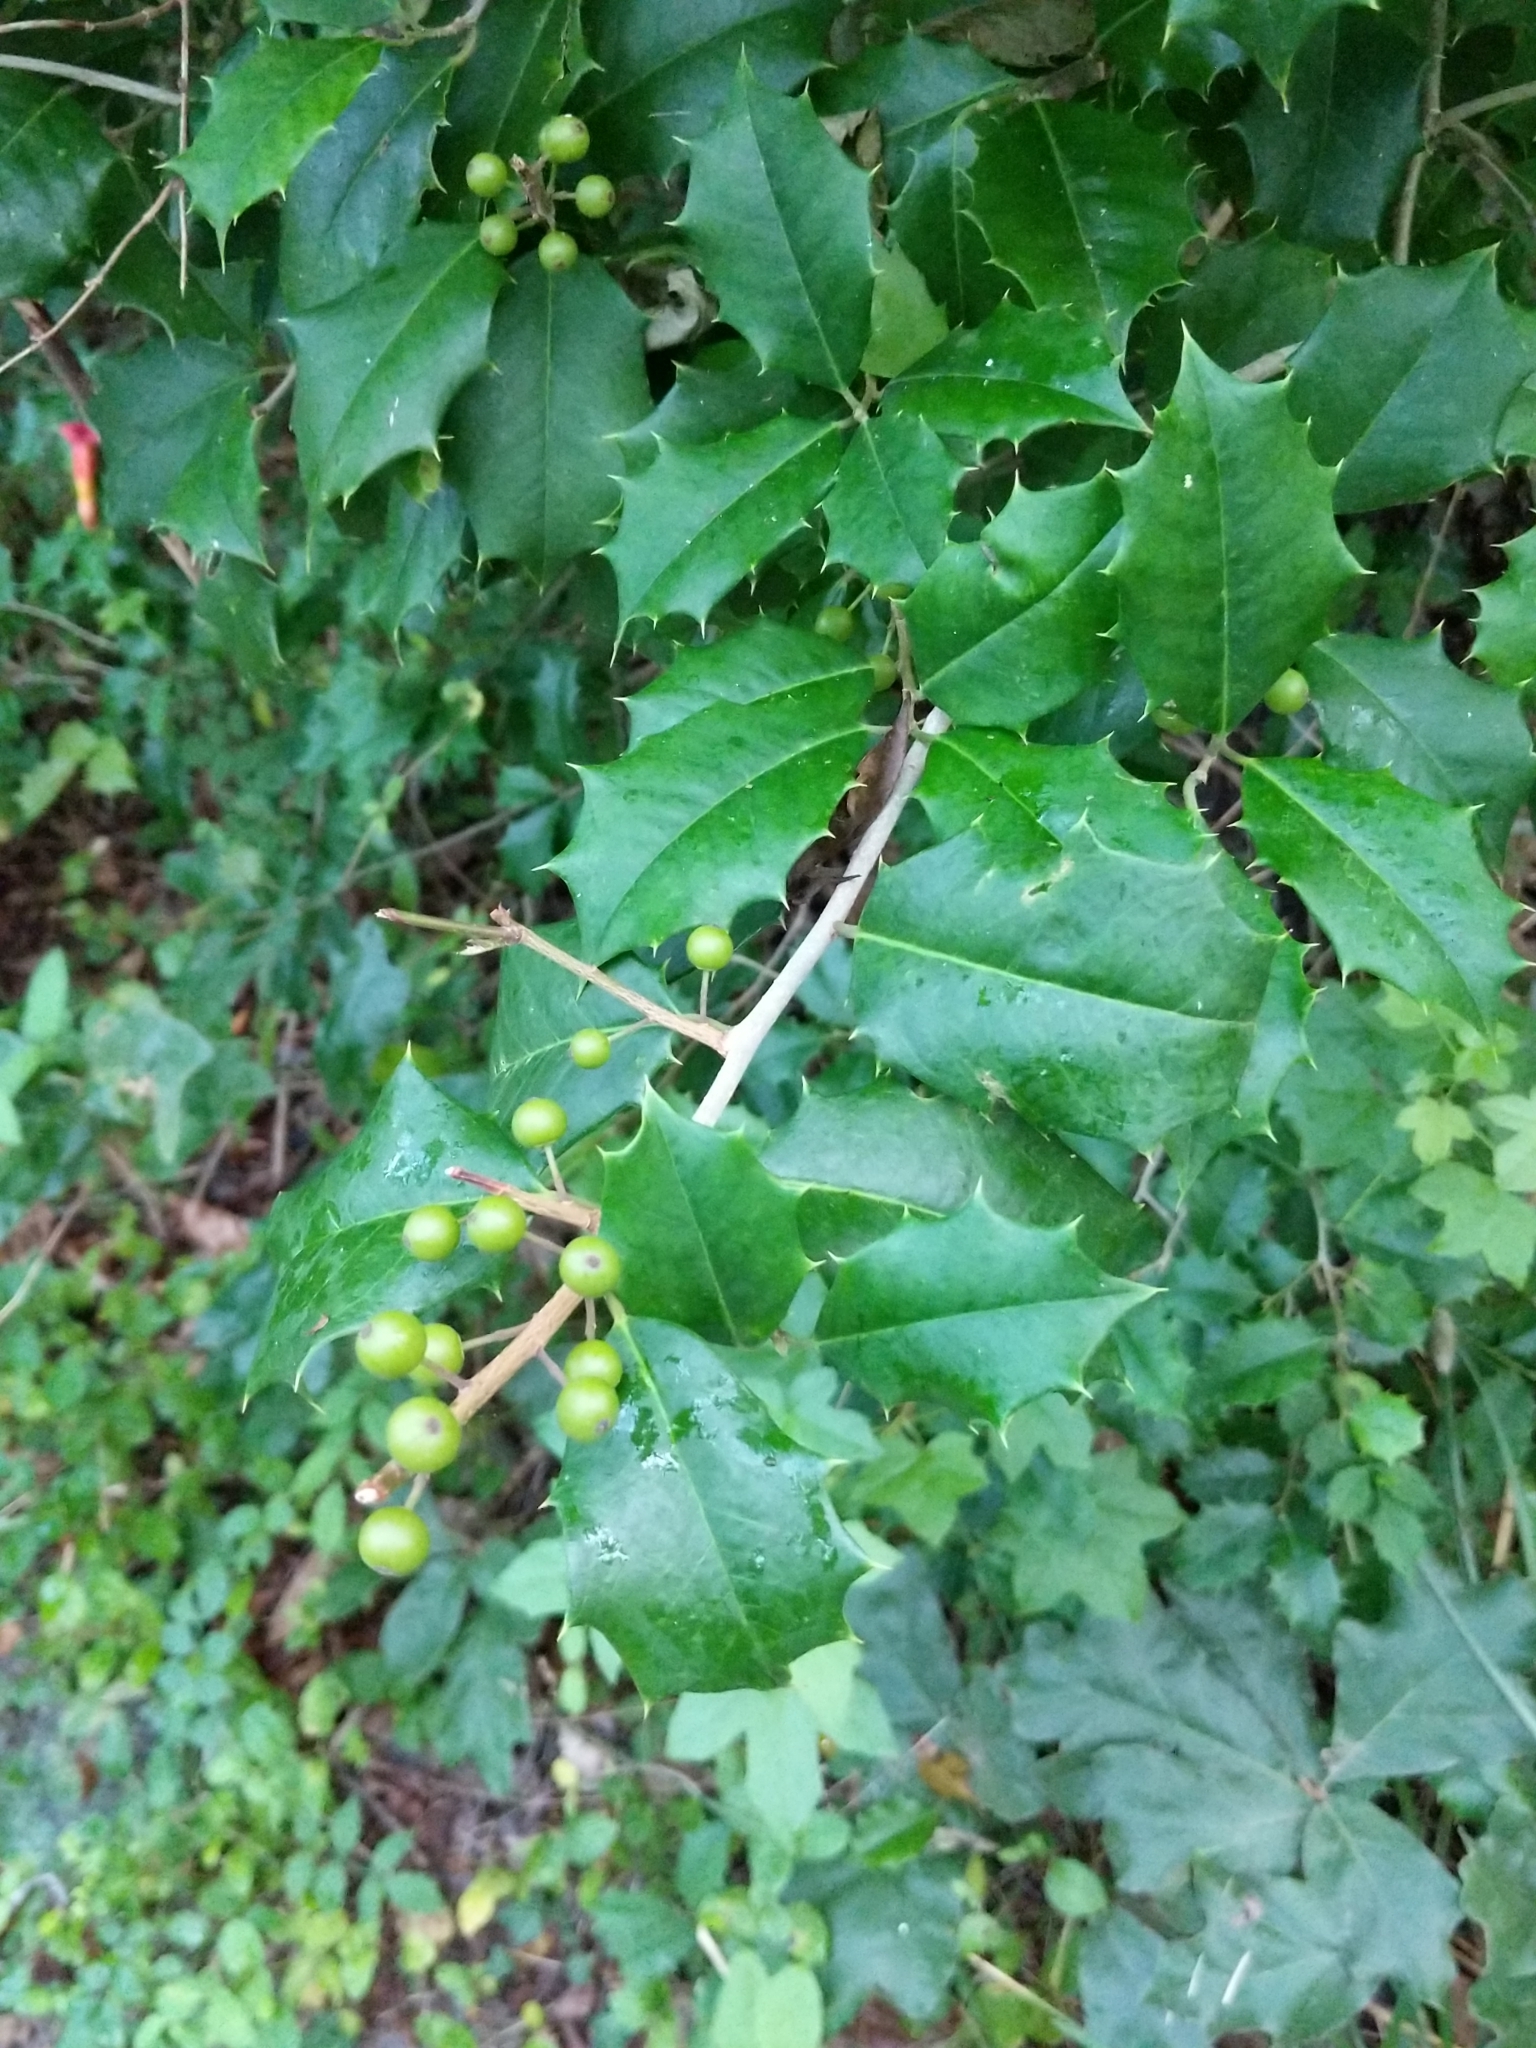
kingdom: Plantae
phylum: Tracheophyta
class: Magnoliopsida
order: Aquifoliales
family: Aquifoliaceae
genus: Ilex
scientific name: Ilex opaca
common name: American holly
